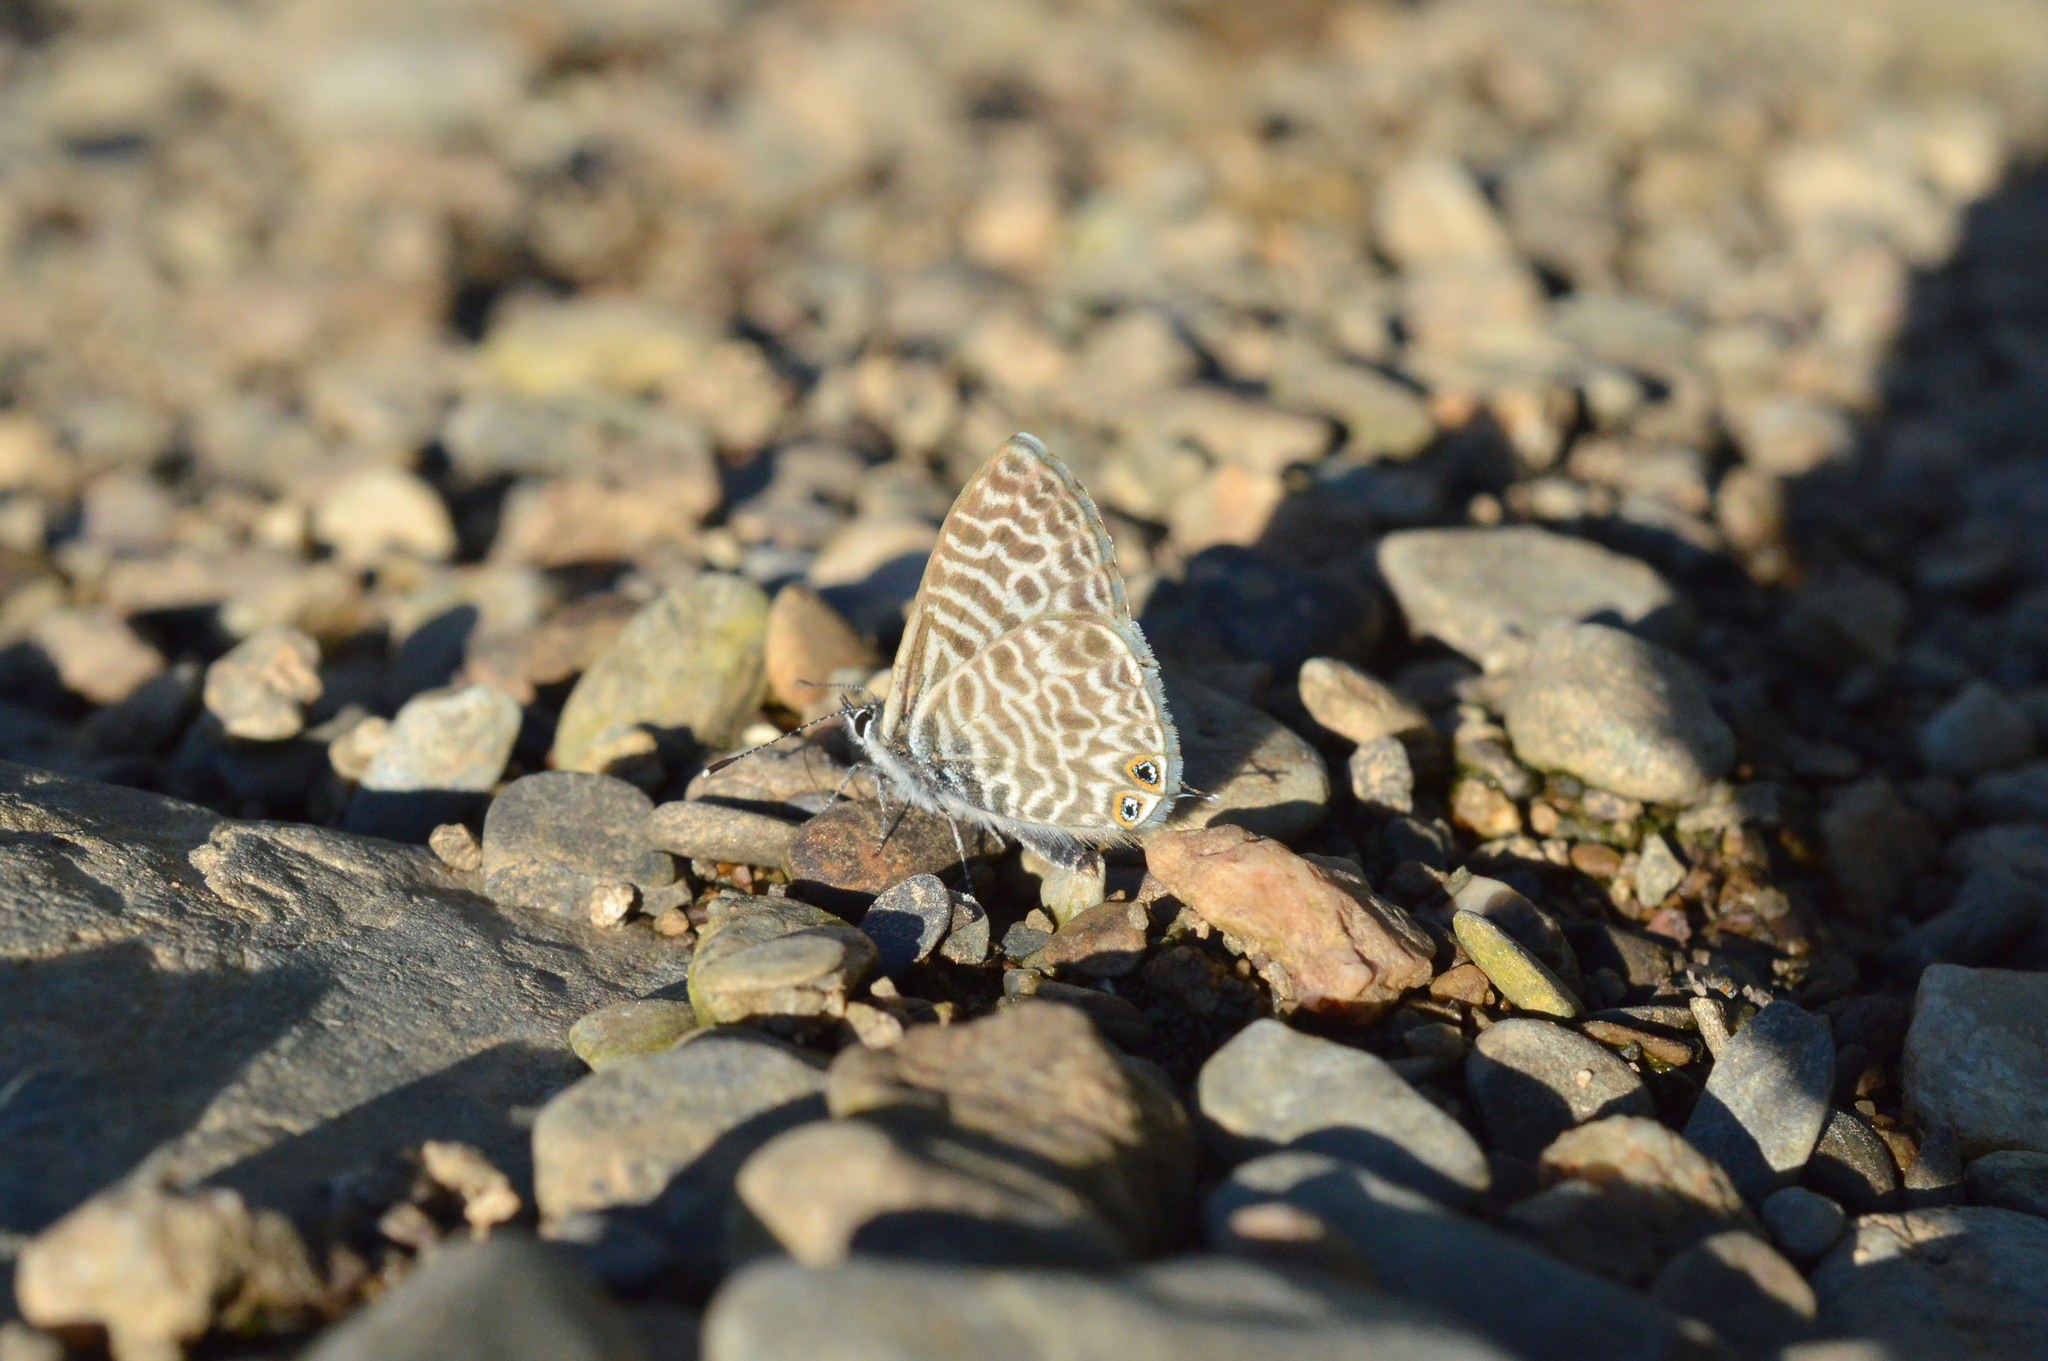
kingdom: Animalia
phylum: Arthropoda
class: Insecta
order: Lepidoptera
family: Lycaenidae
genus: Leptotes
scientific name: Leptotes pirithous
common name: Lang's short-tailed blue
